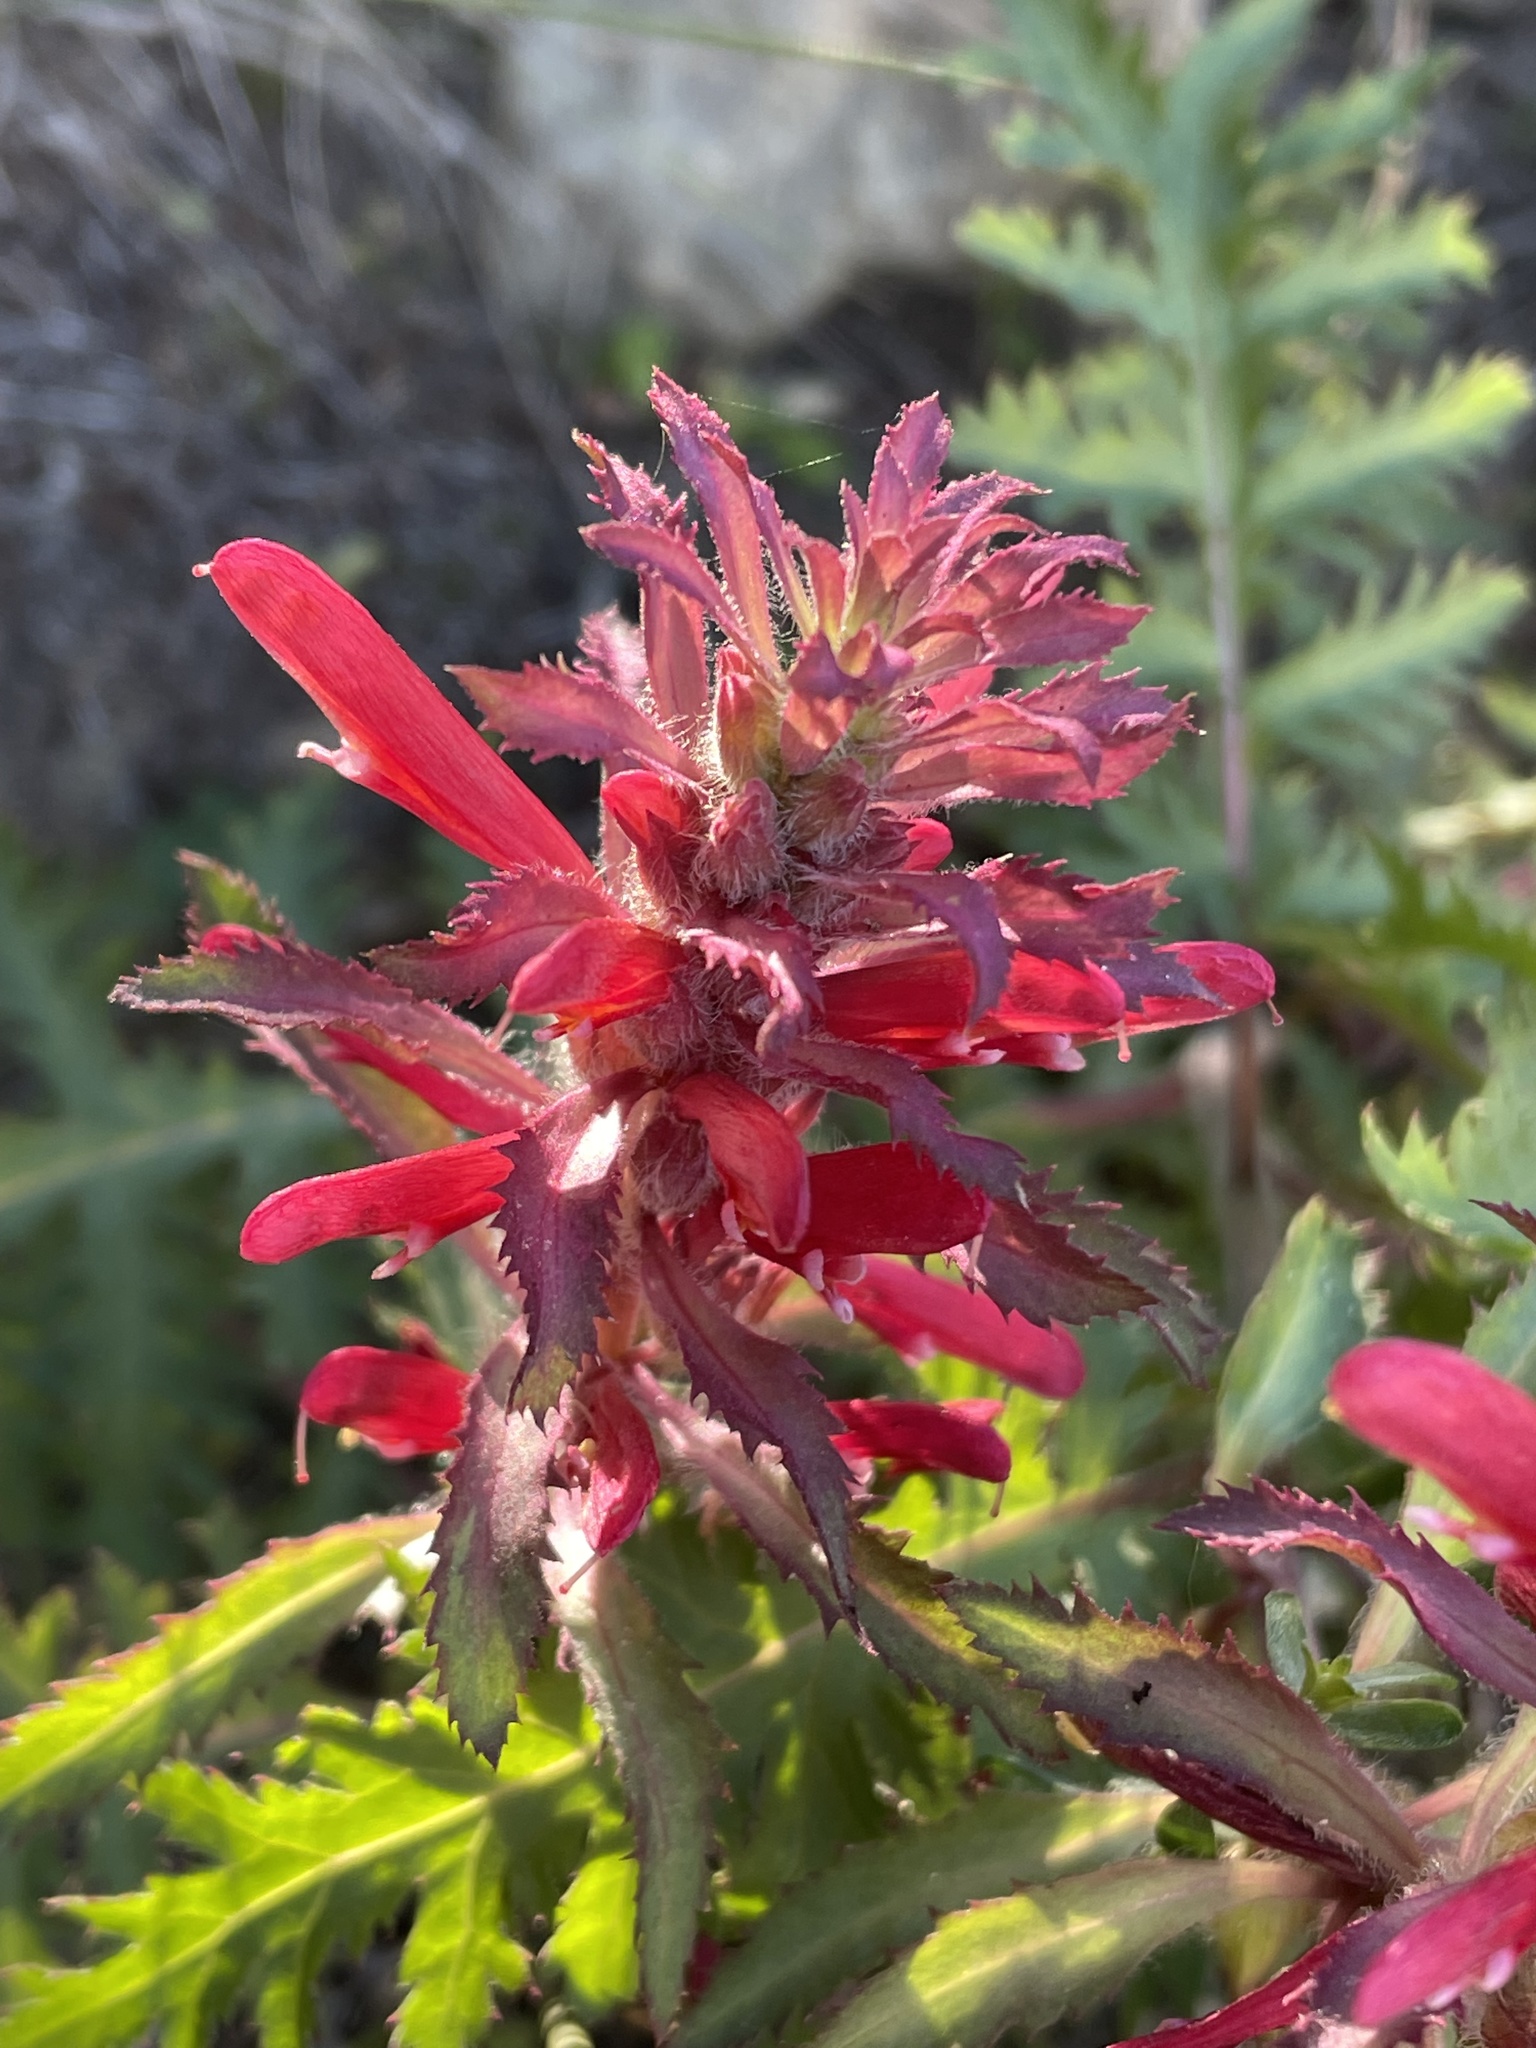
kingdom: Plantae
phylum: Tracheophyta
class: Magnoliopsida
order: Lamiales
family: Orobanchaceae
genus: Pedicularis
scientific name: Pedicularis densiflora
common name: Indian warrior
